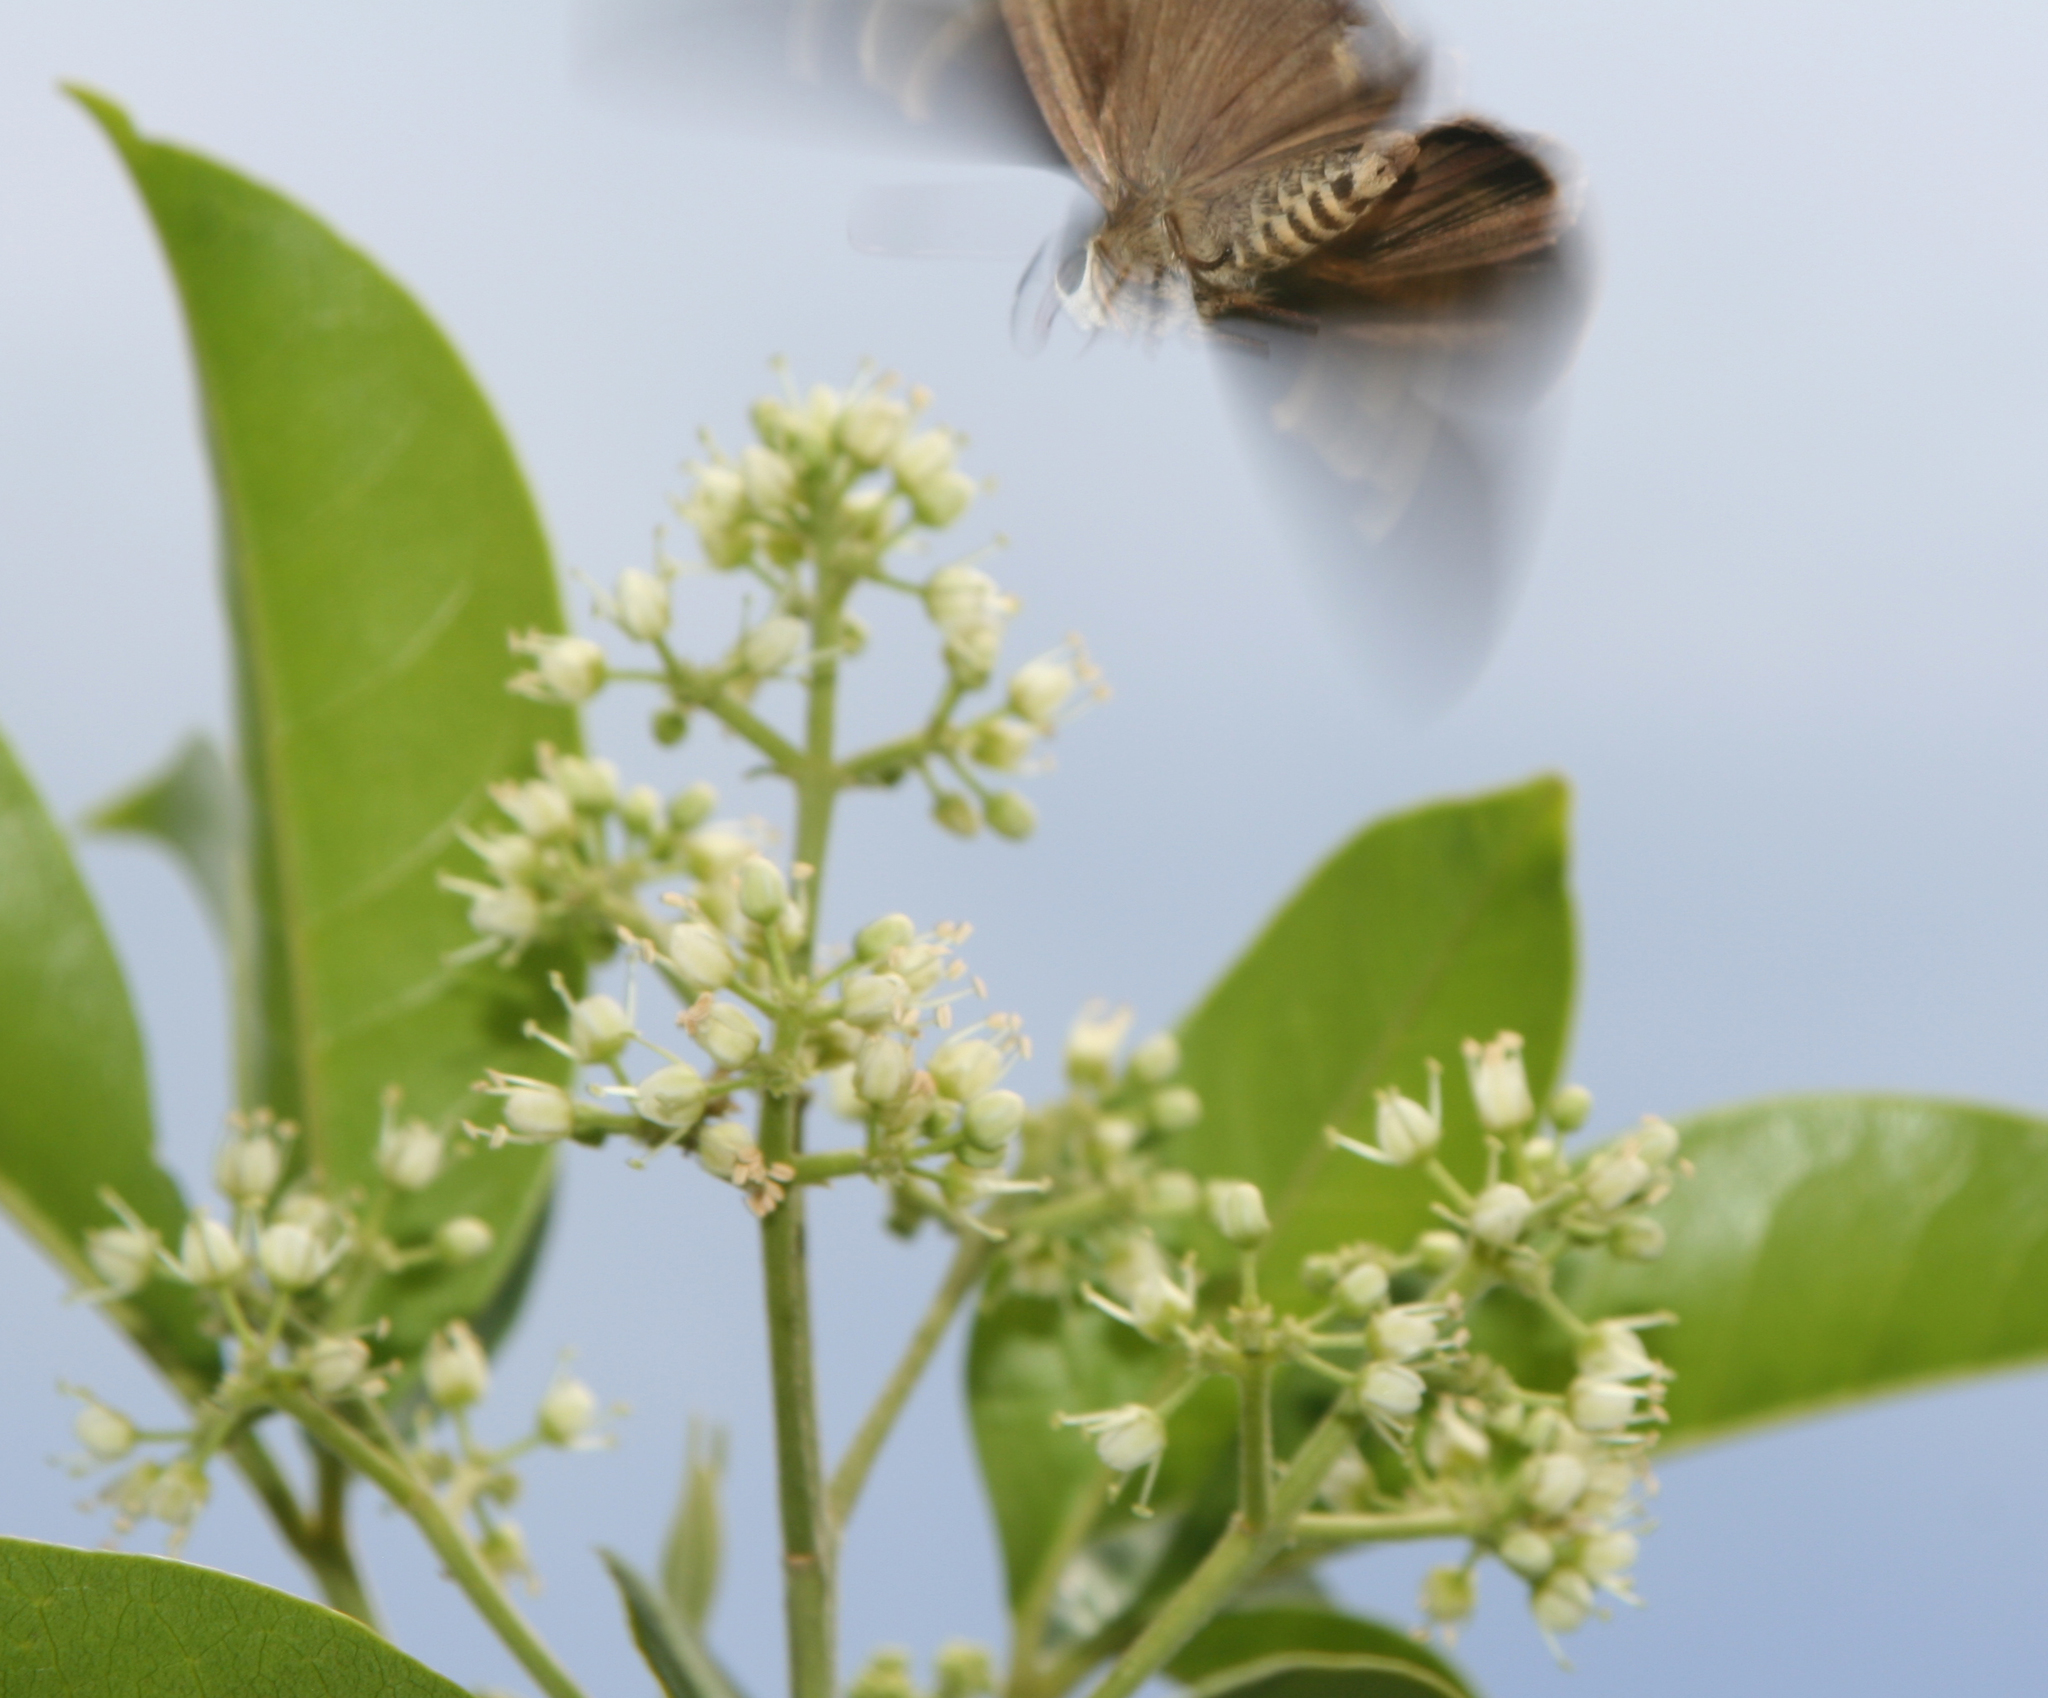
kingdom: Animalia
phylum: Arthropoda
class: Insecta
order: Lepidoptera
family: Hesperiidae
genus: Badamia
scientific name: Badamia exclamationis
